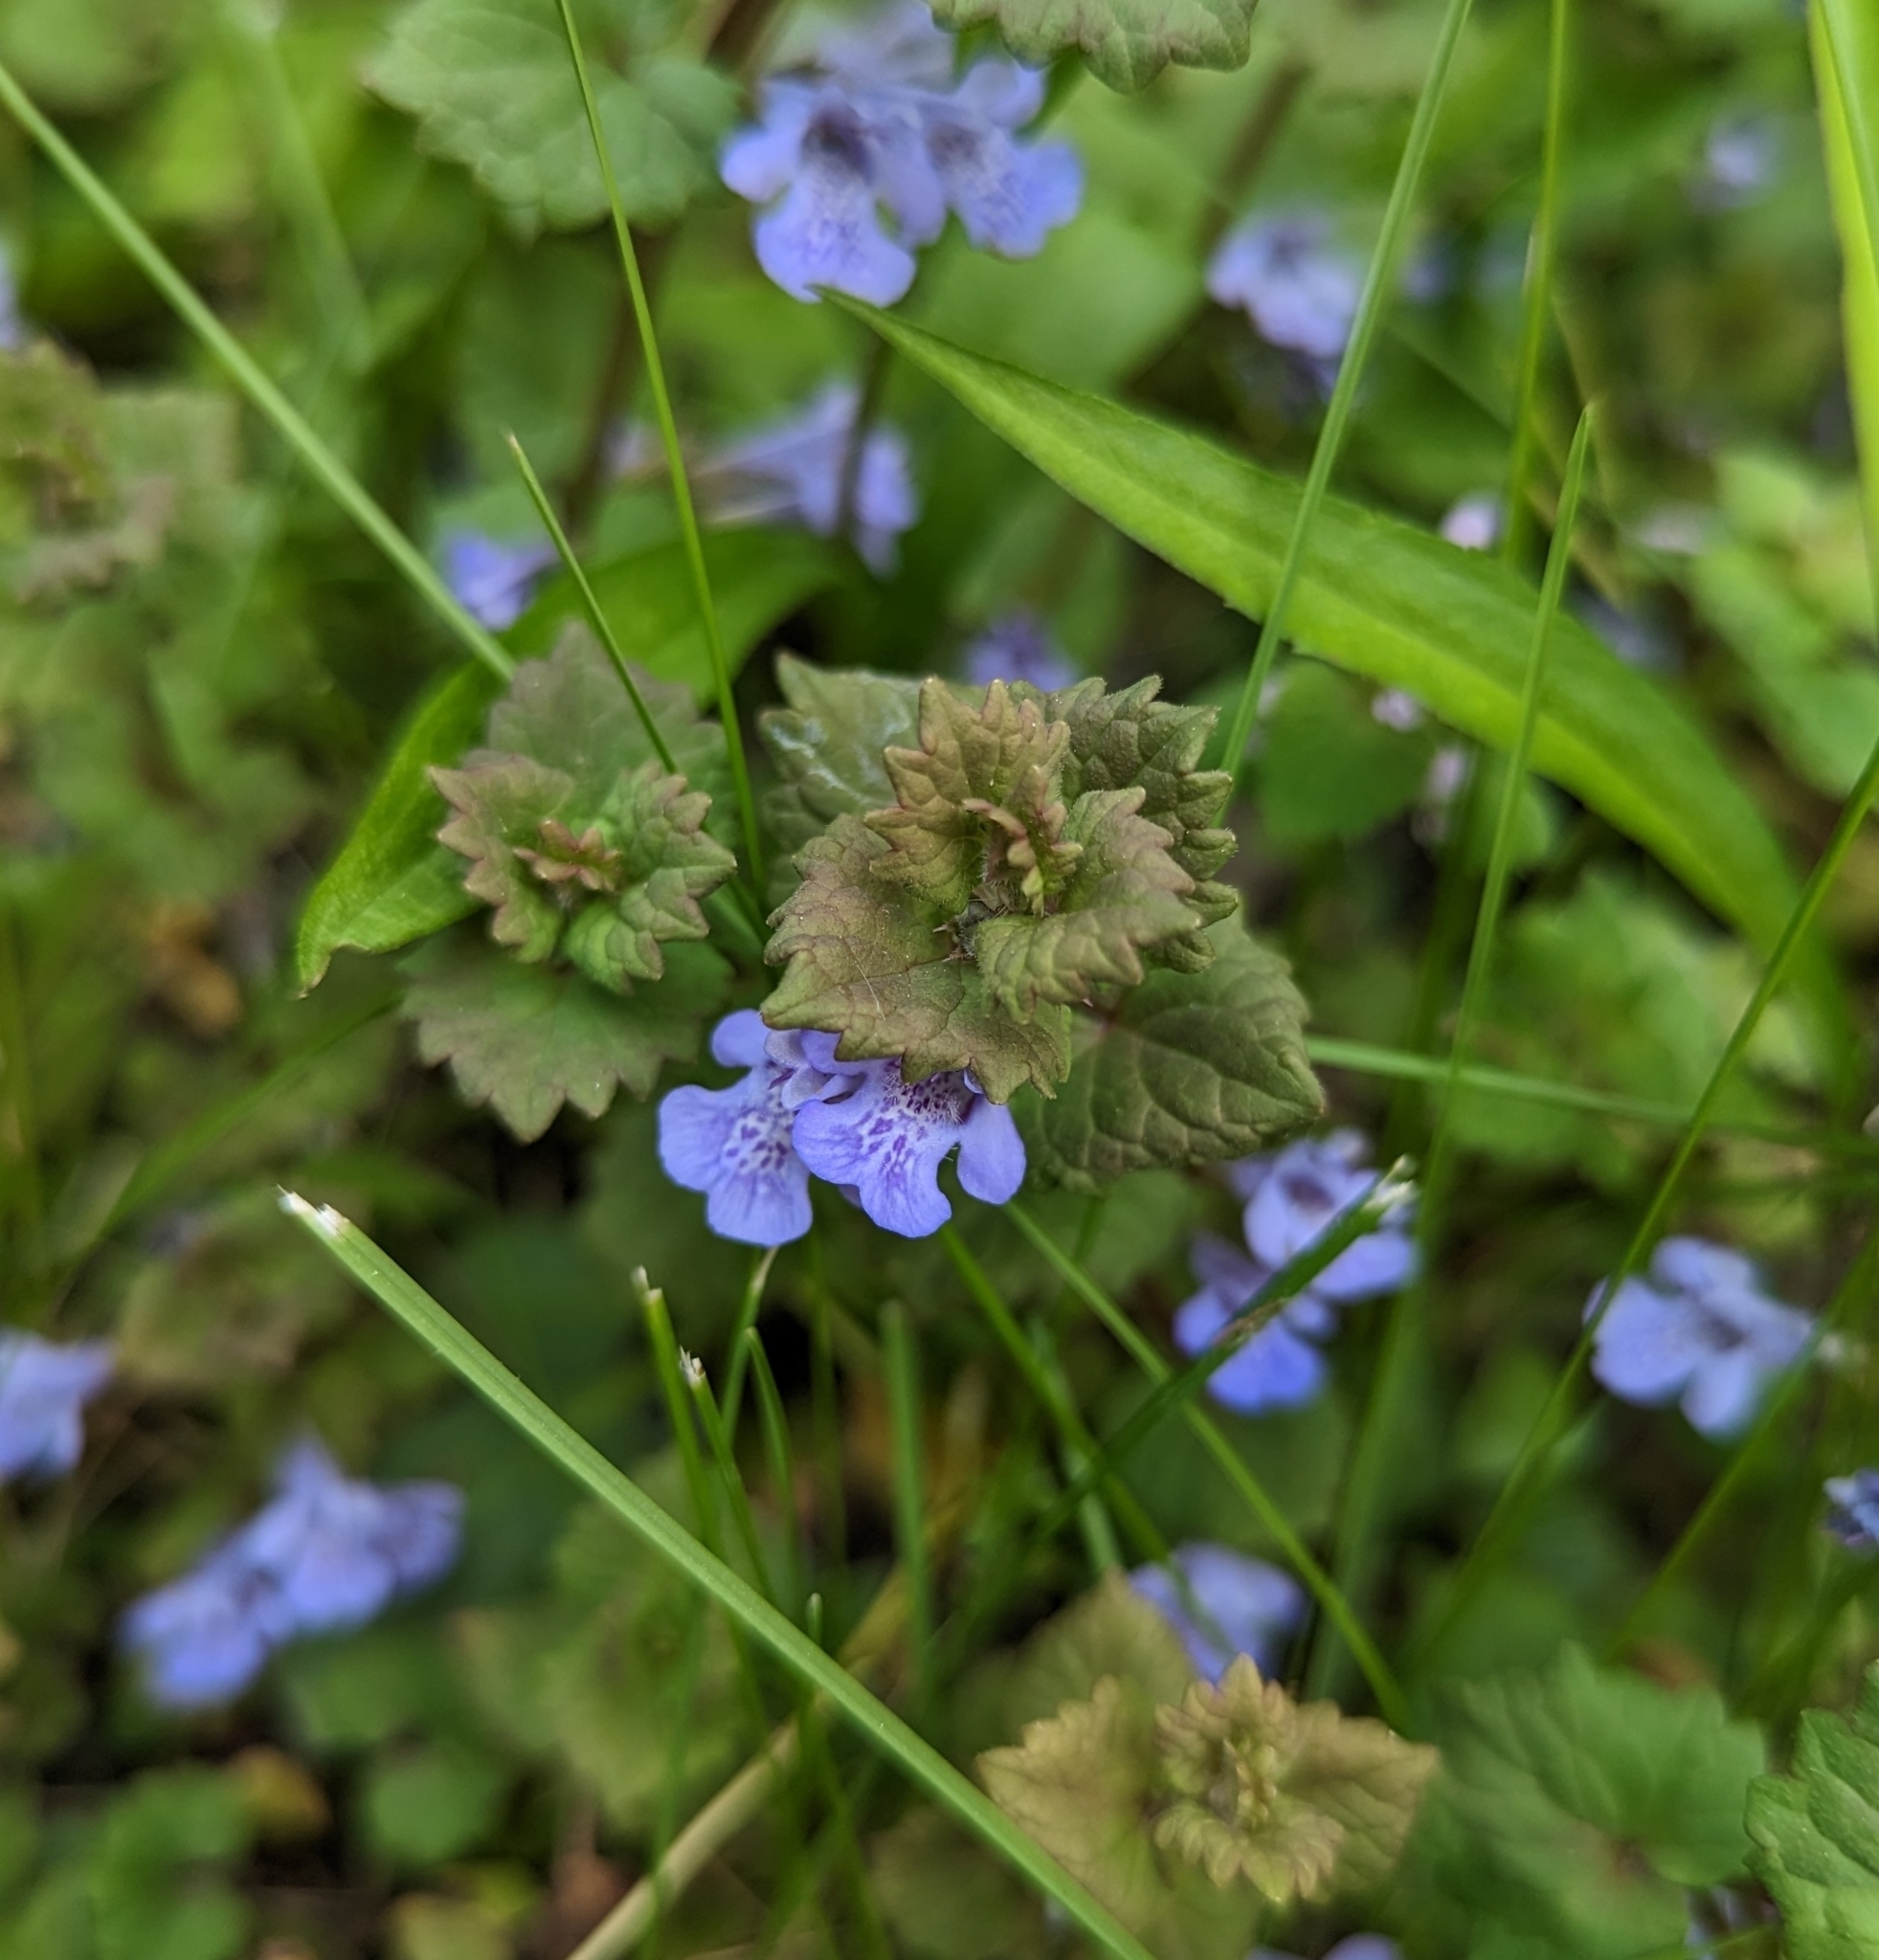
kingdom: Plantae
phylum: Tracheophyta
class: Magnoliopsida
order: Lamiales
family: Lamiaceae
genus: Glechoma
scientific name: Glechoma hederacea
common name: Ground ivy
